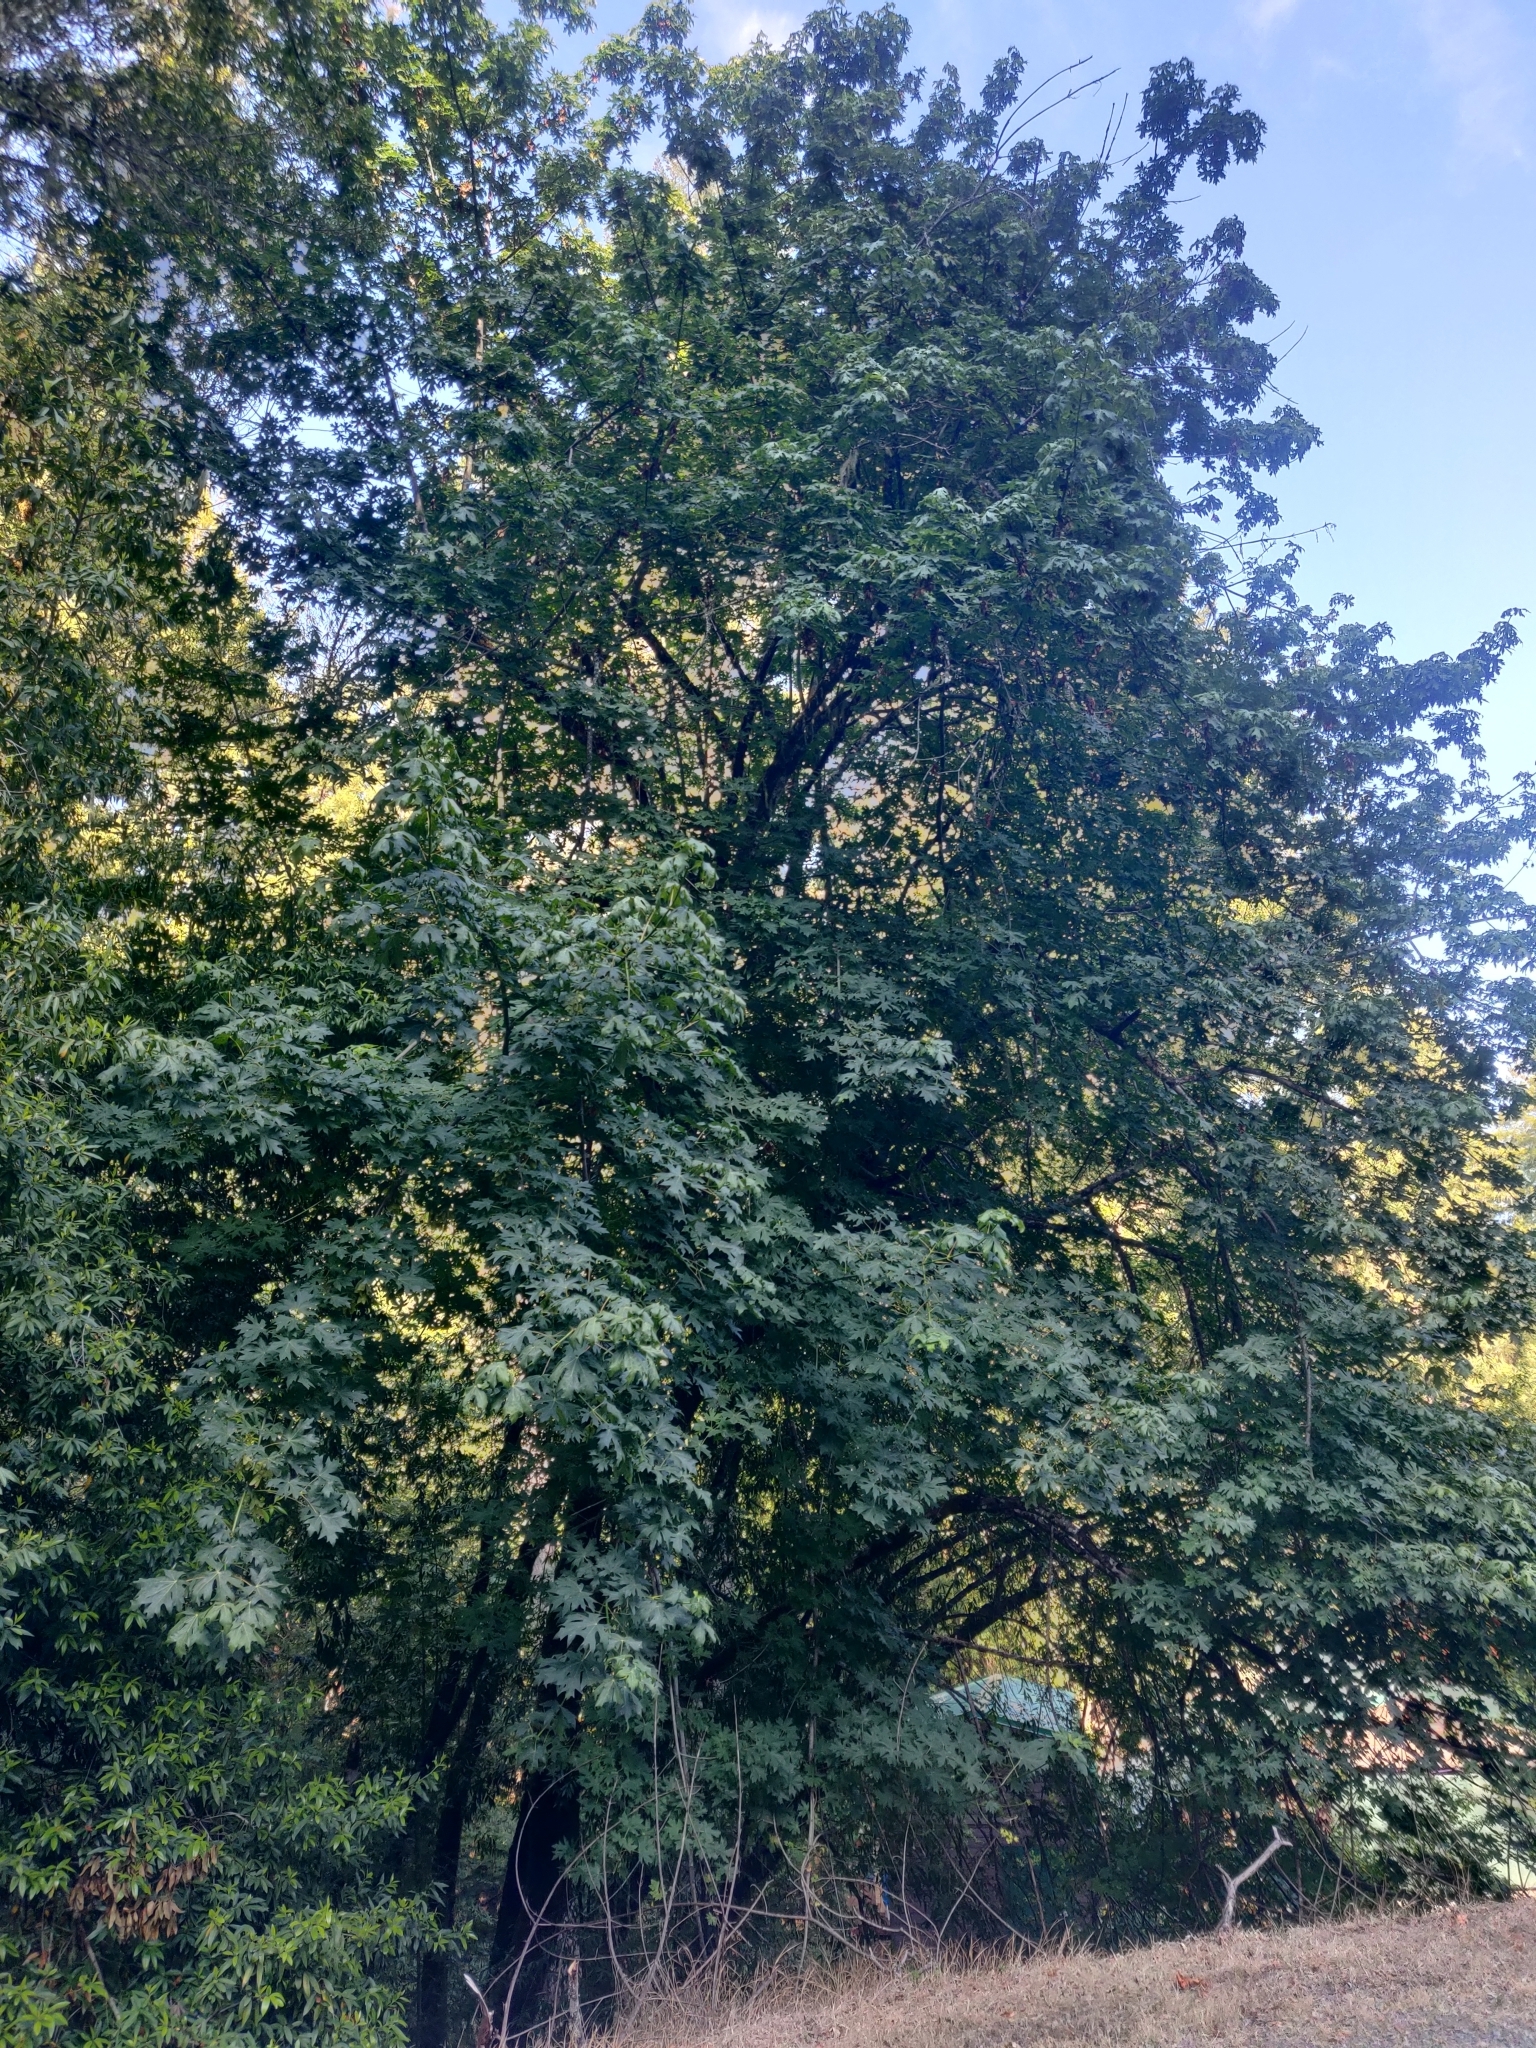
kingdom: Plantae
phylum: Tracheophyta
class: Magnoliopsida
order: Sapindales
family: Sapindaceae
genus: Acer
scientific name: Acer macrophyllum
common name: Oregon maple
